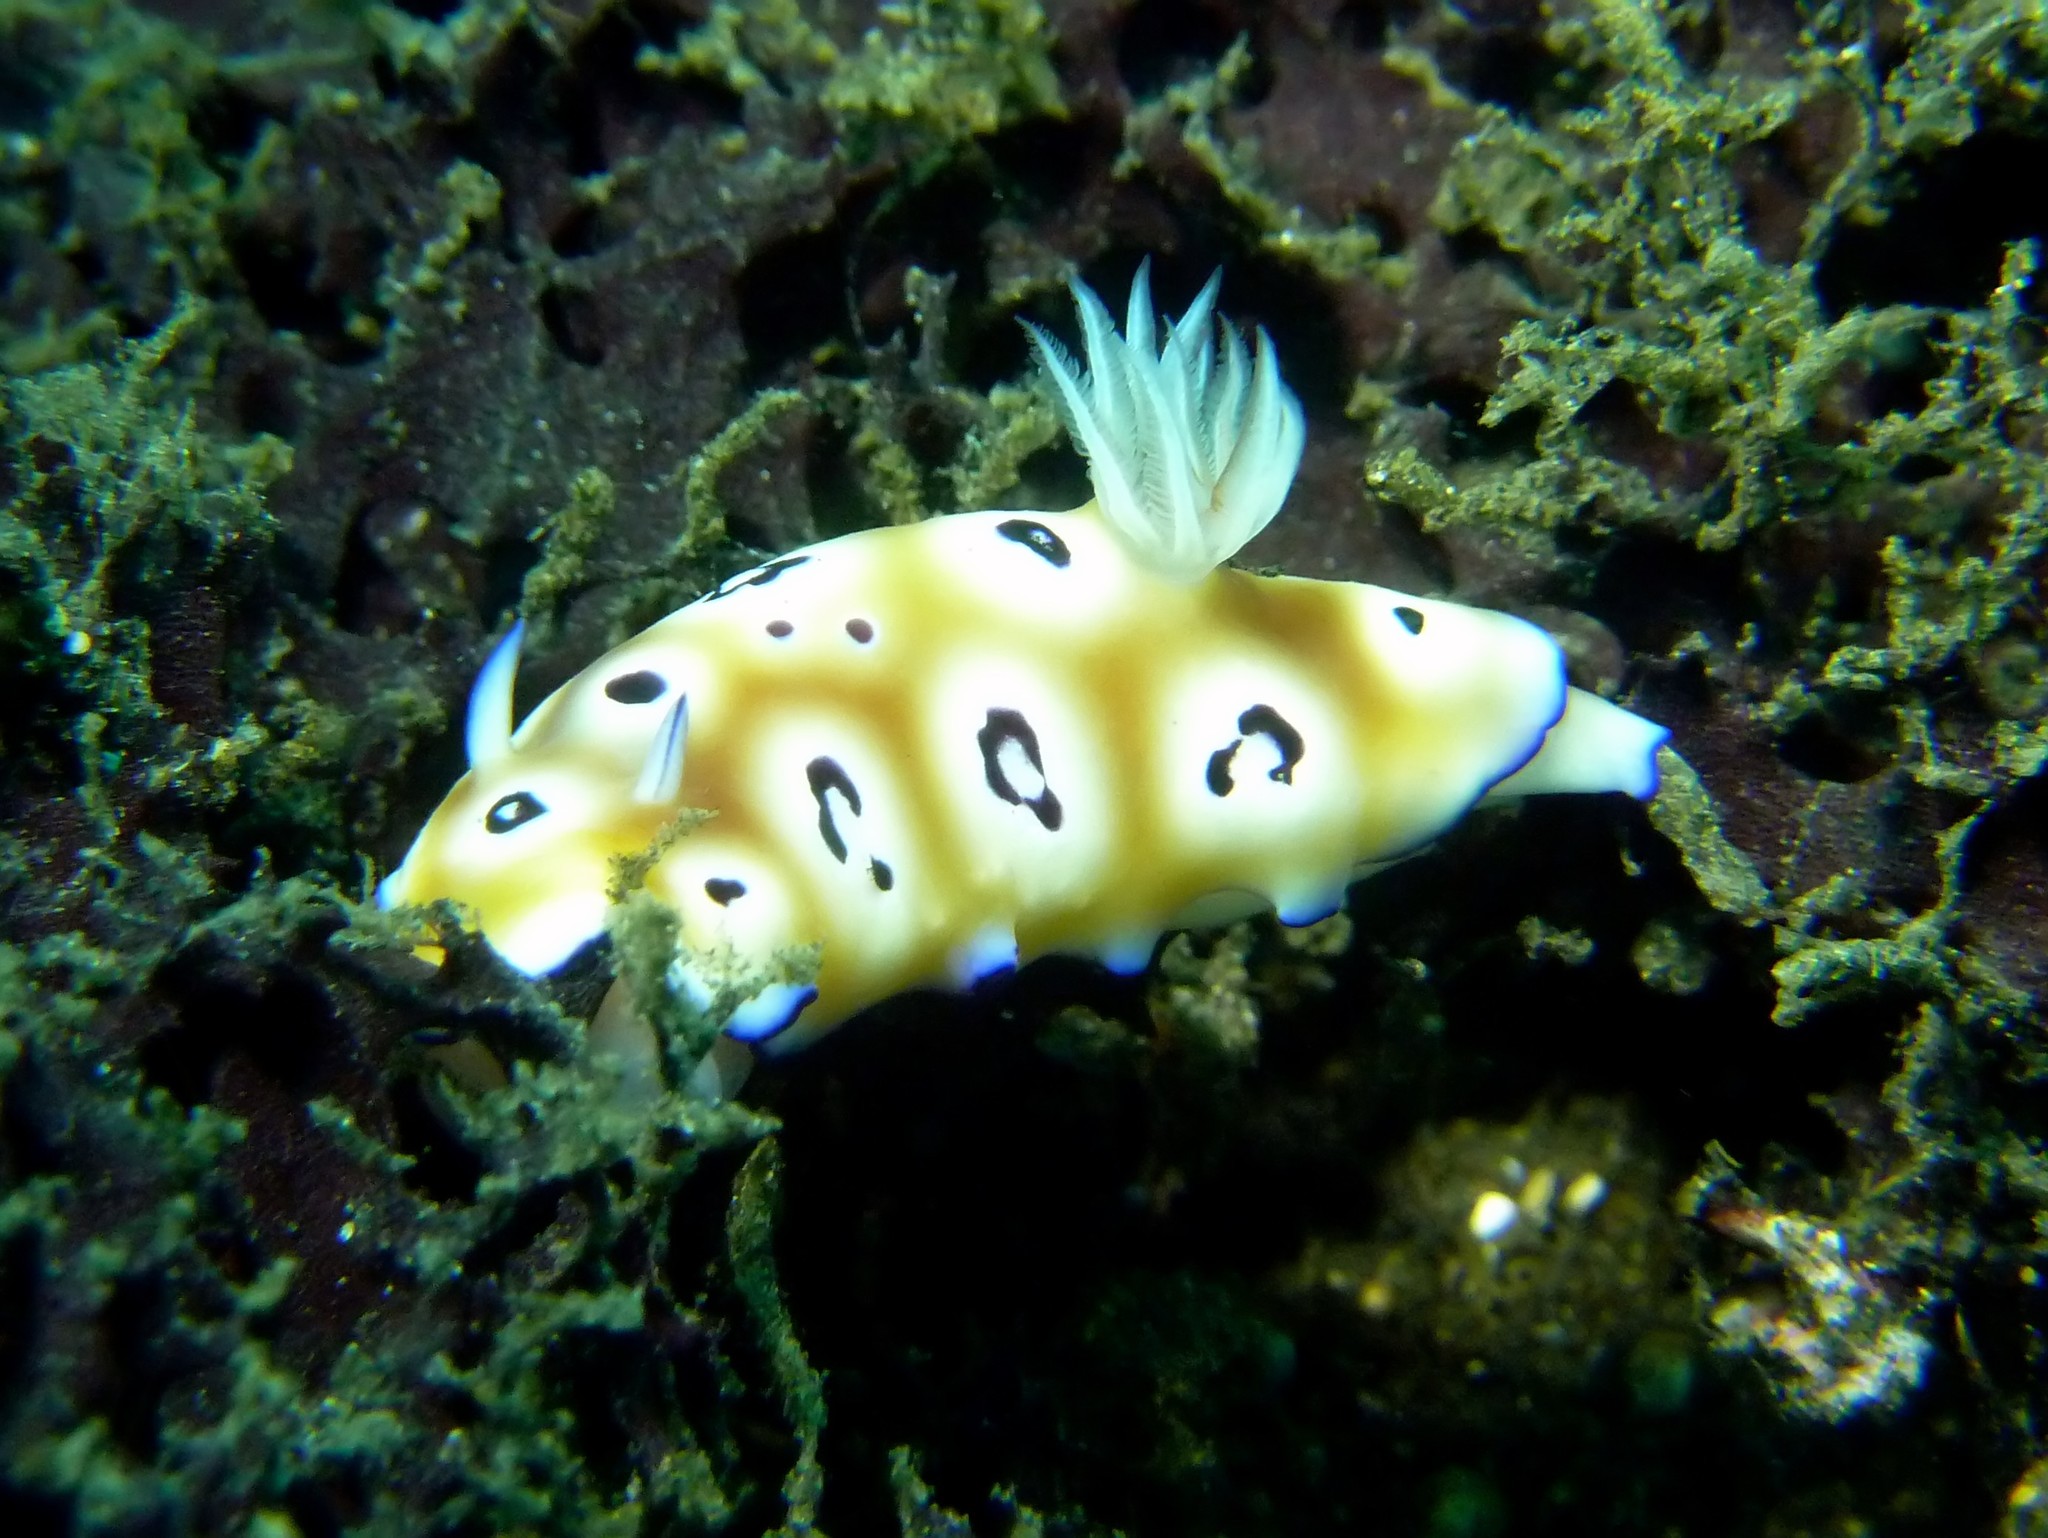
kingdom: Animalia
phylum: Mollusca
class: Gastropoda
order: Nudibranchia
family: Chromodorididae
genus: Goniobranchus
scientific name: Goniobranchus leopardus
